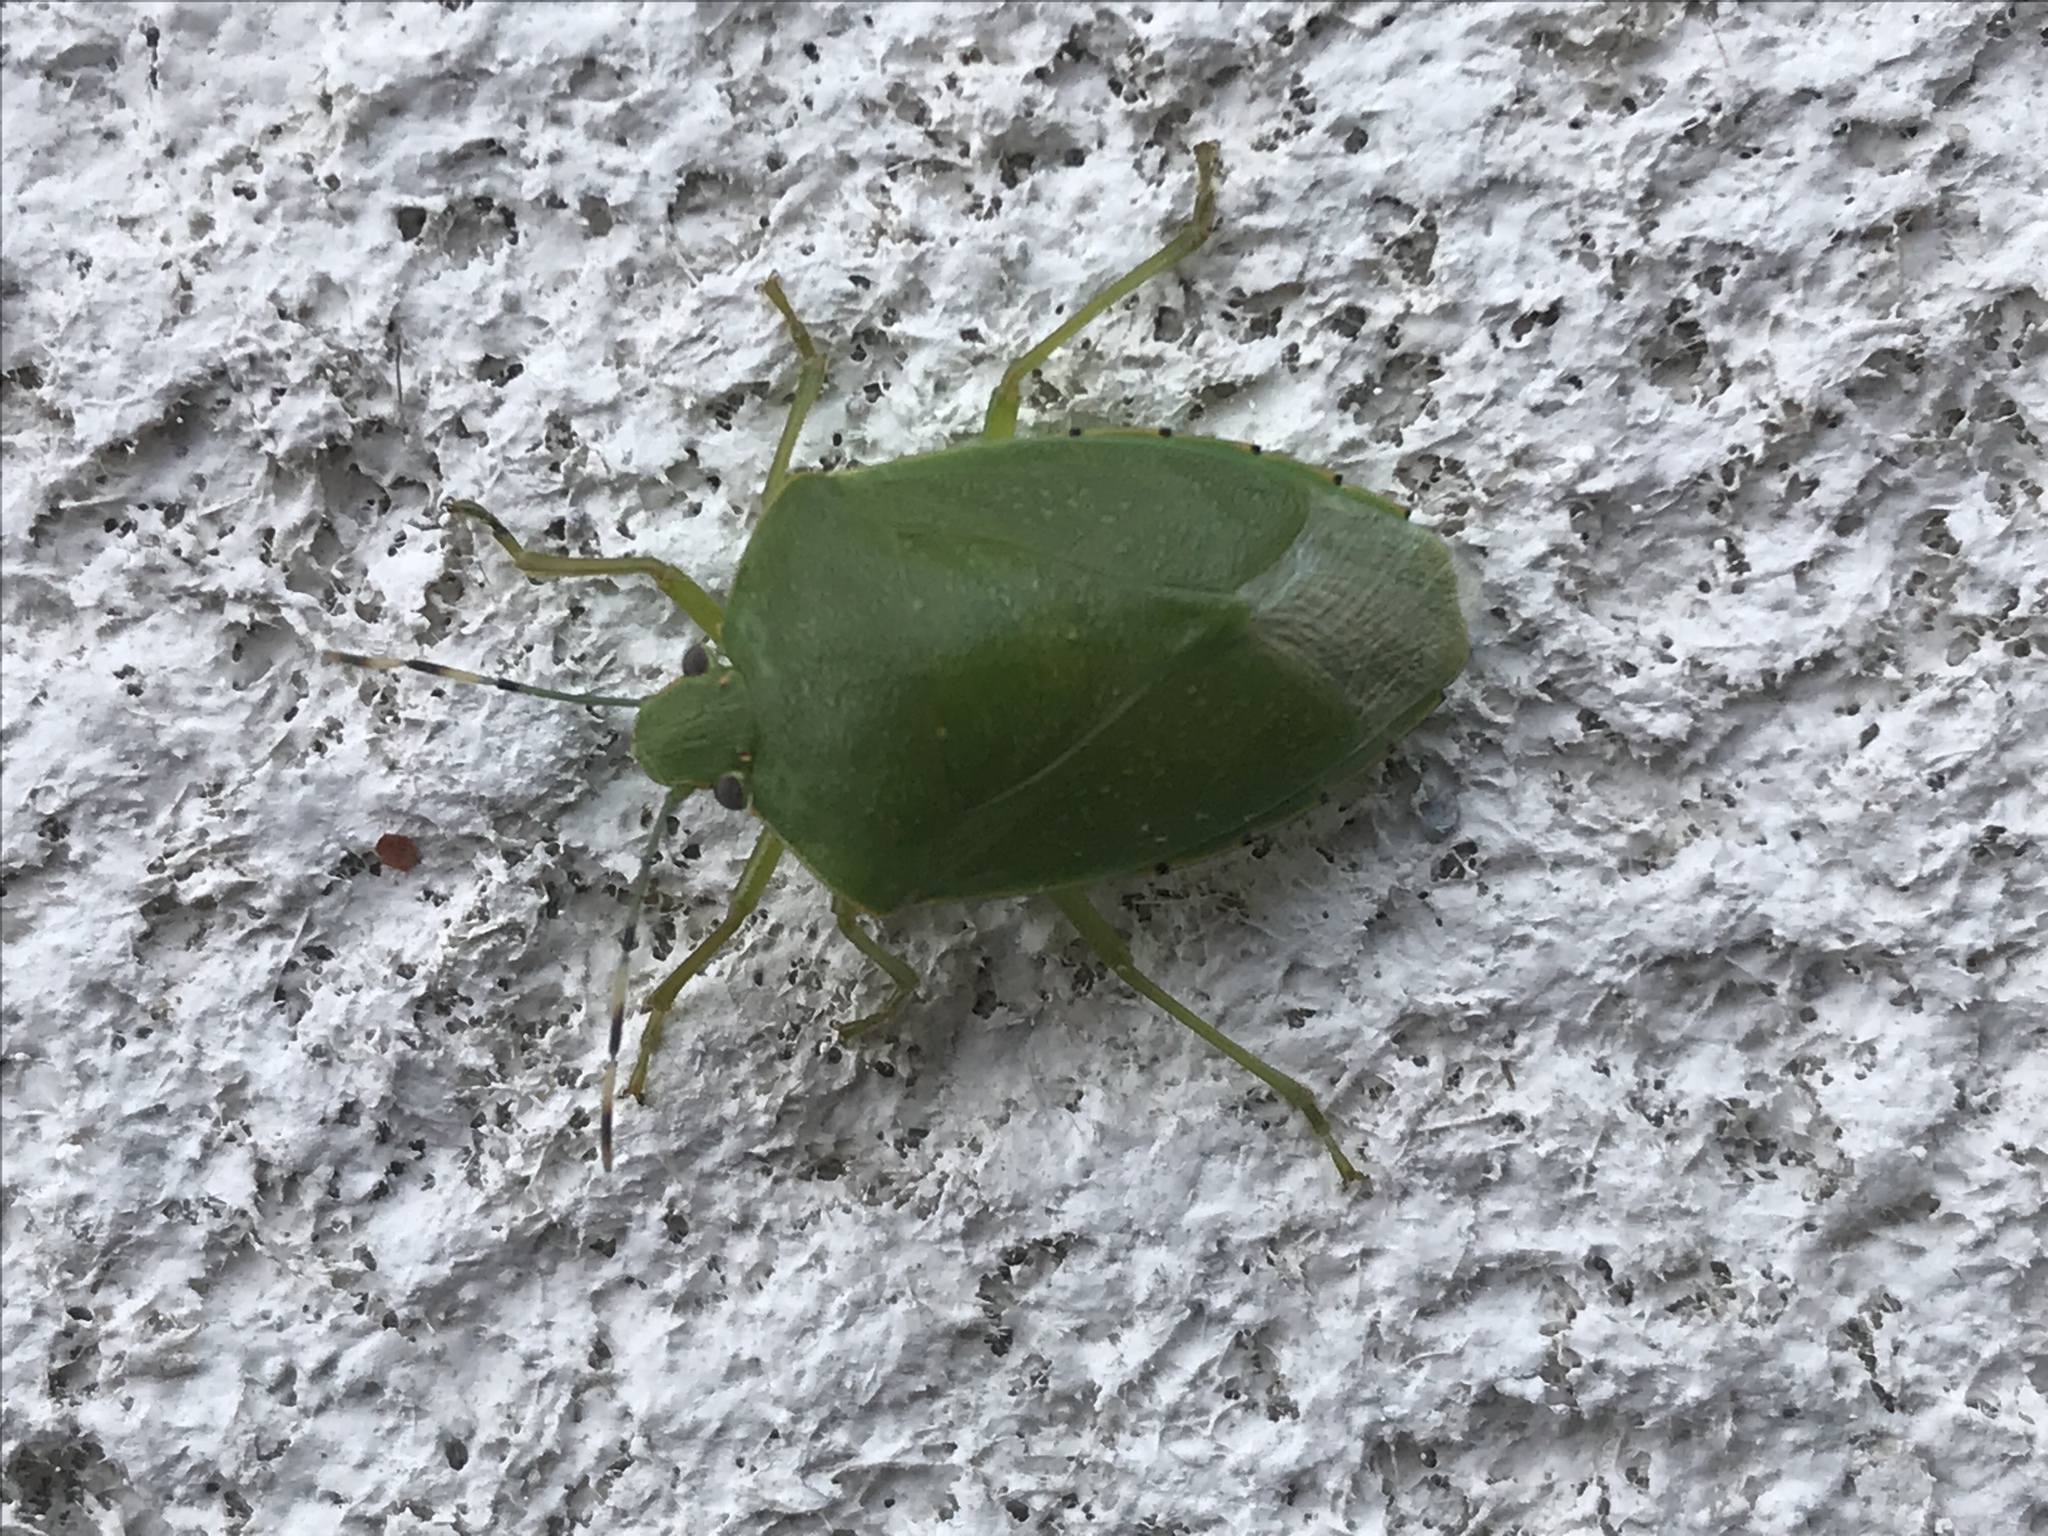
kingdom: Animalia
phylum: Arthropoda
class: Insecta
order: Hemiptera
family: Pentatomidae
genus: Chinavia
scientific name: Chinavia hilaris
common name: Green stink bug
